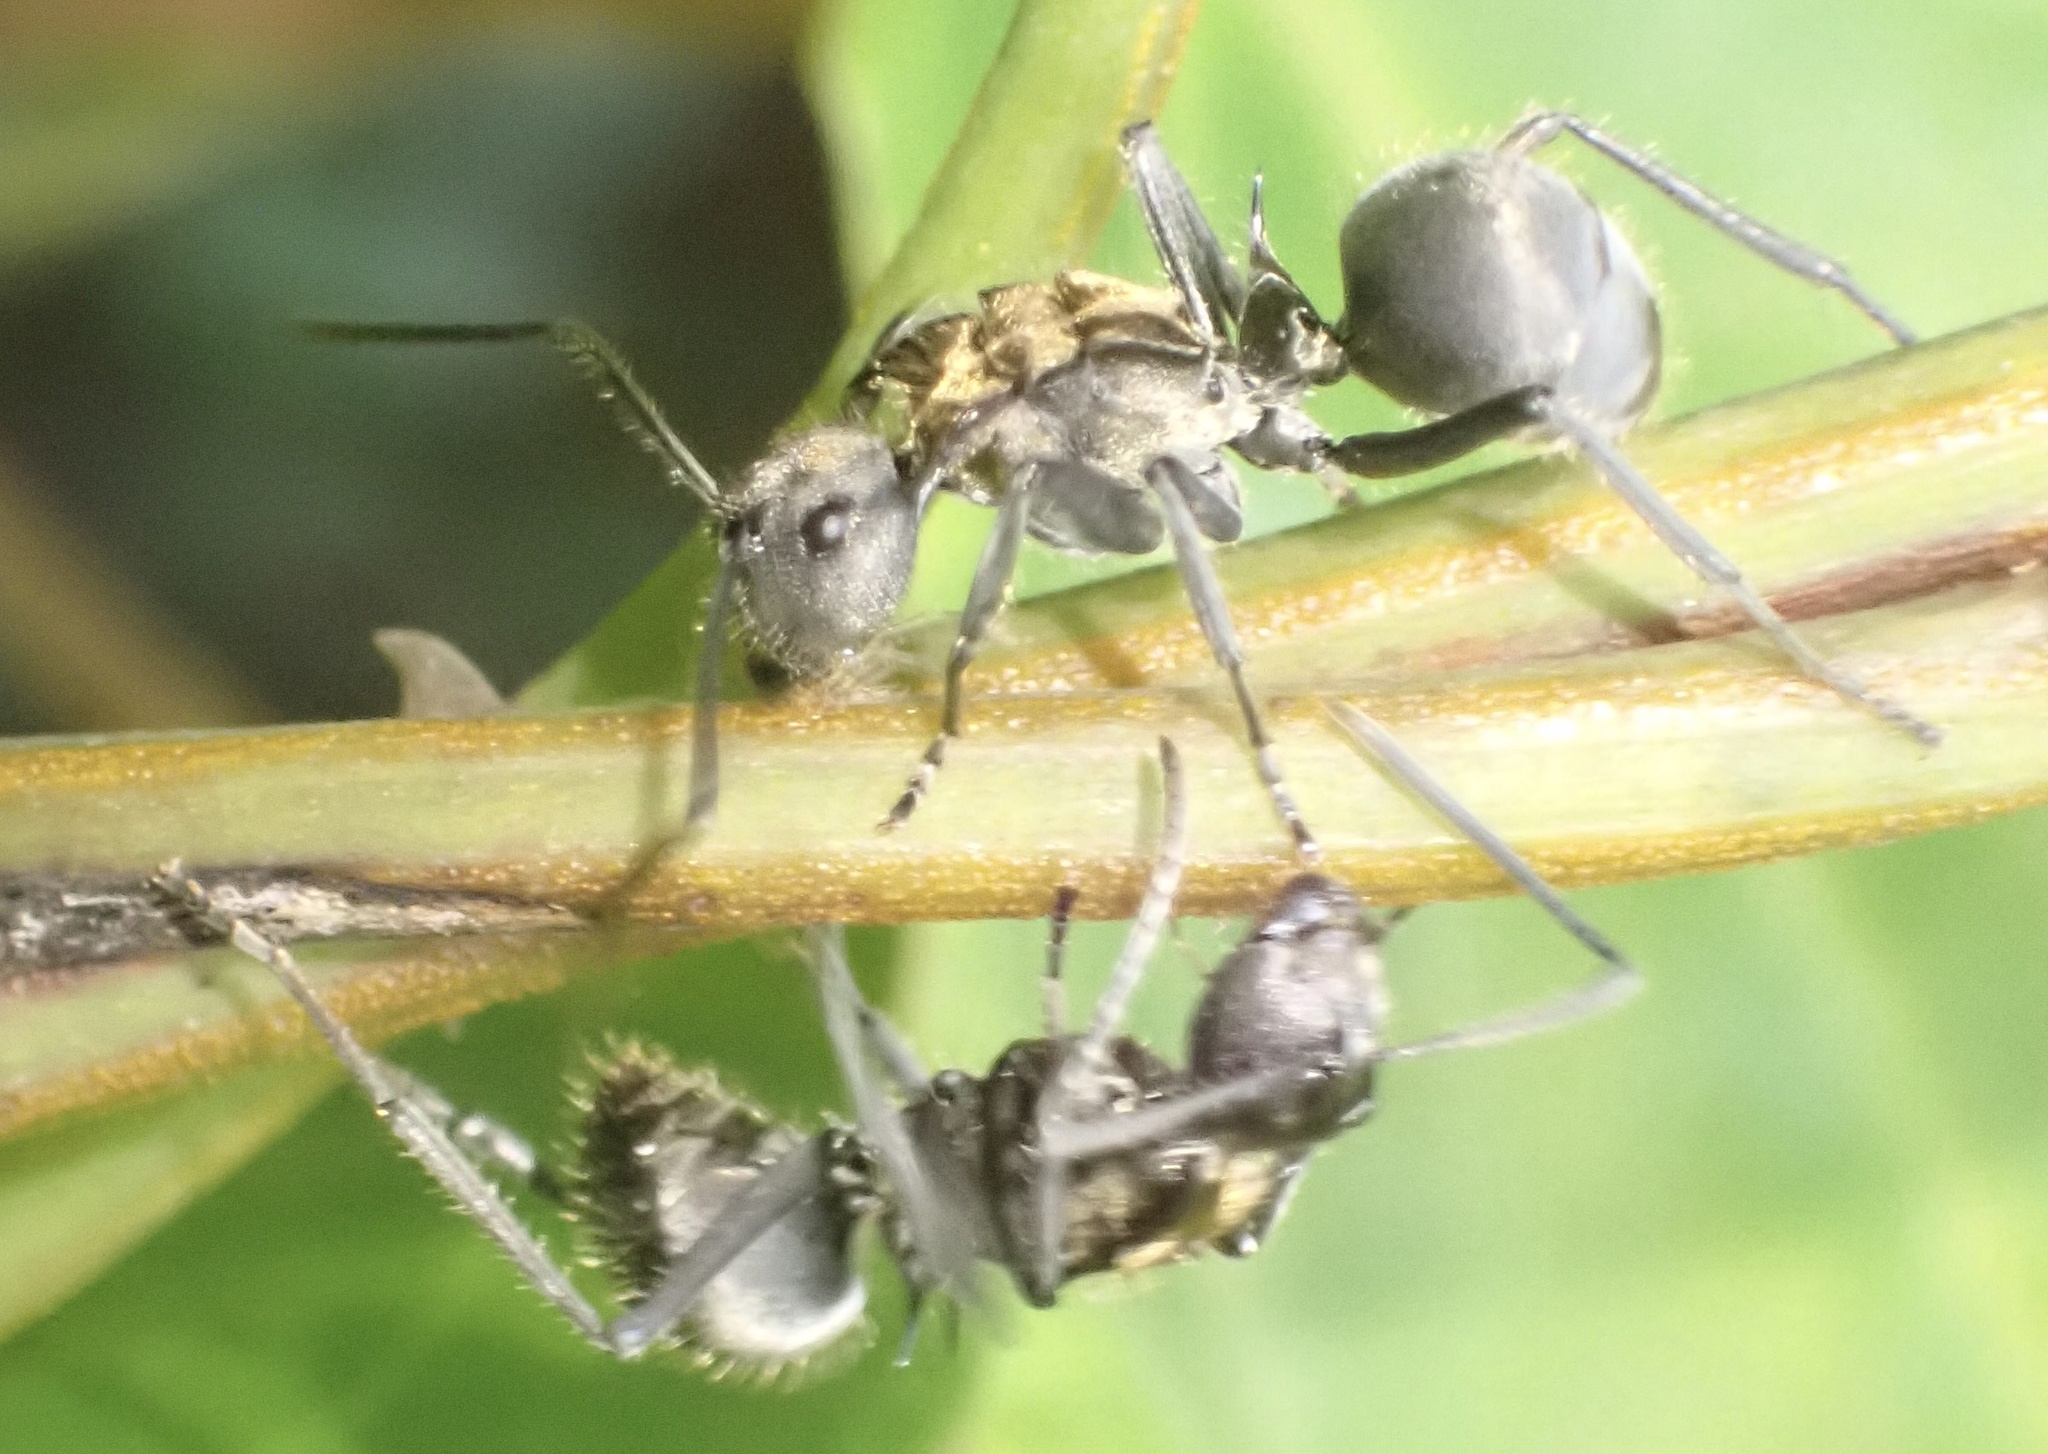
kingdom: Animalia
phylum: Arthropoda
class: Insecta
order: Hymenoptera
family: Formicidae
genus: Polyrhachis
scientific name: Polyrhachis militaris
